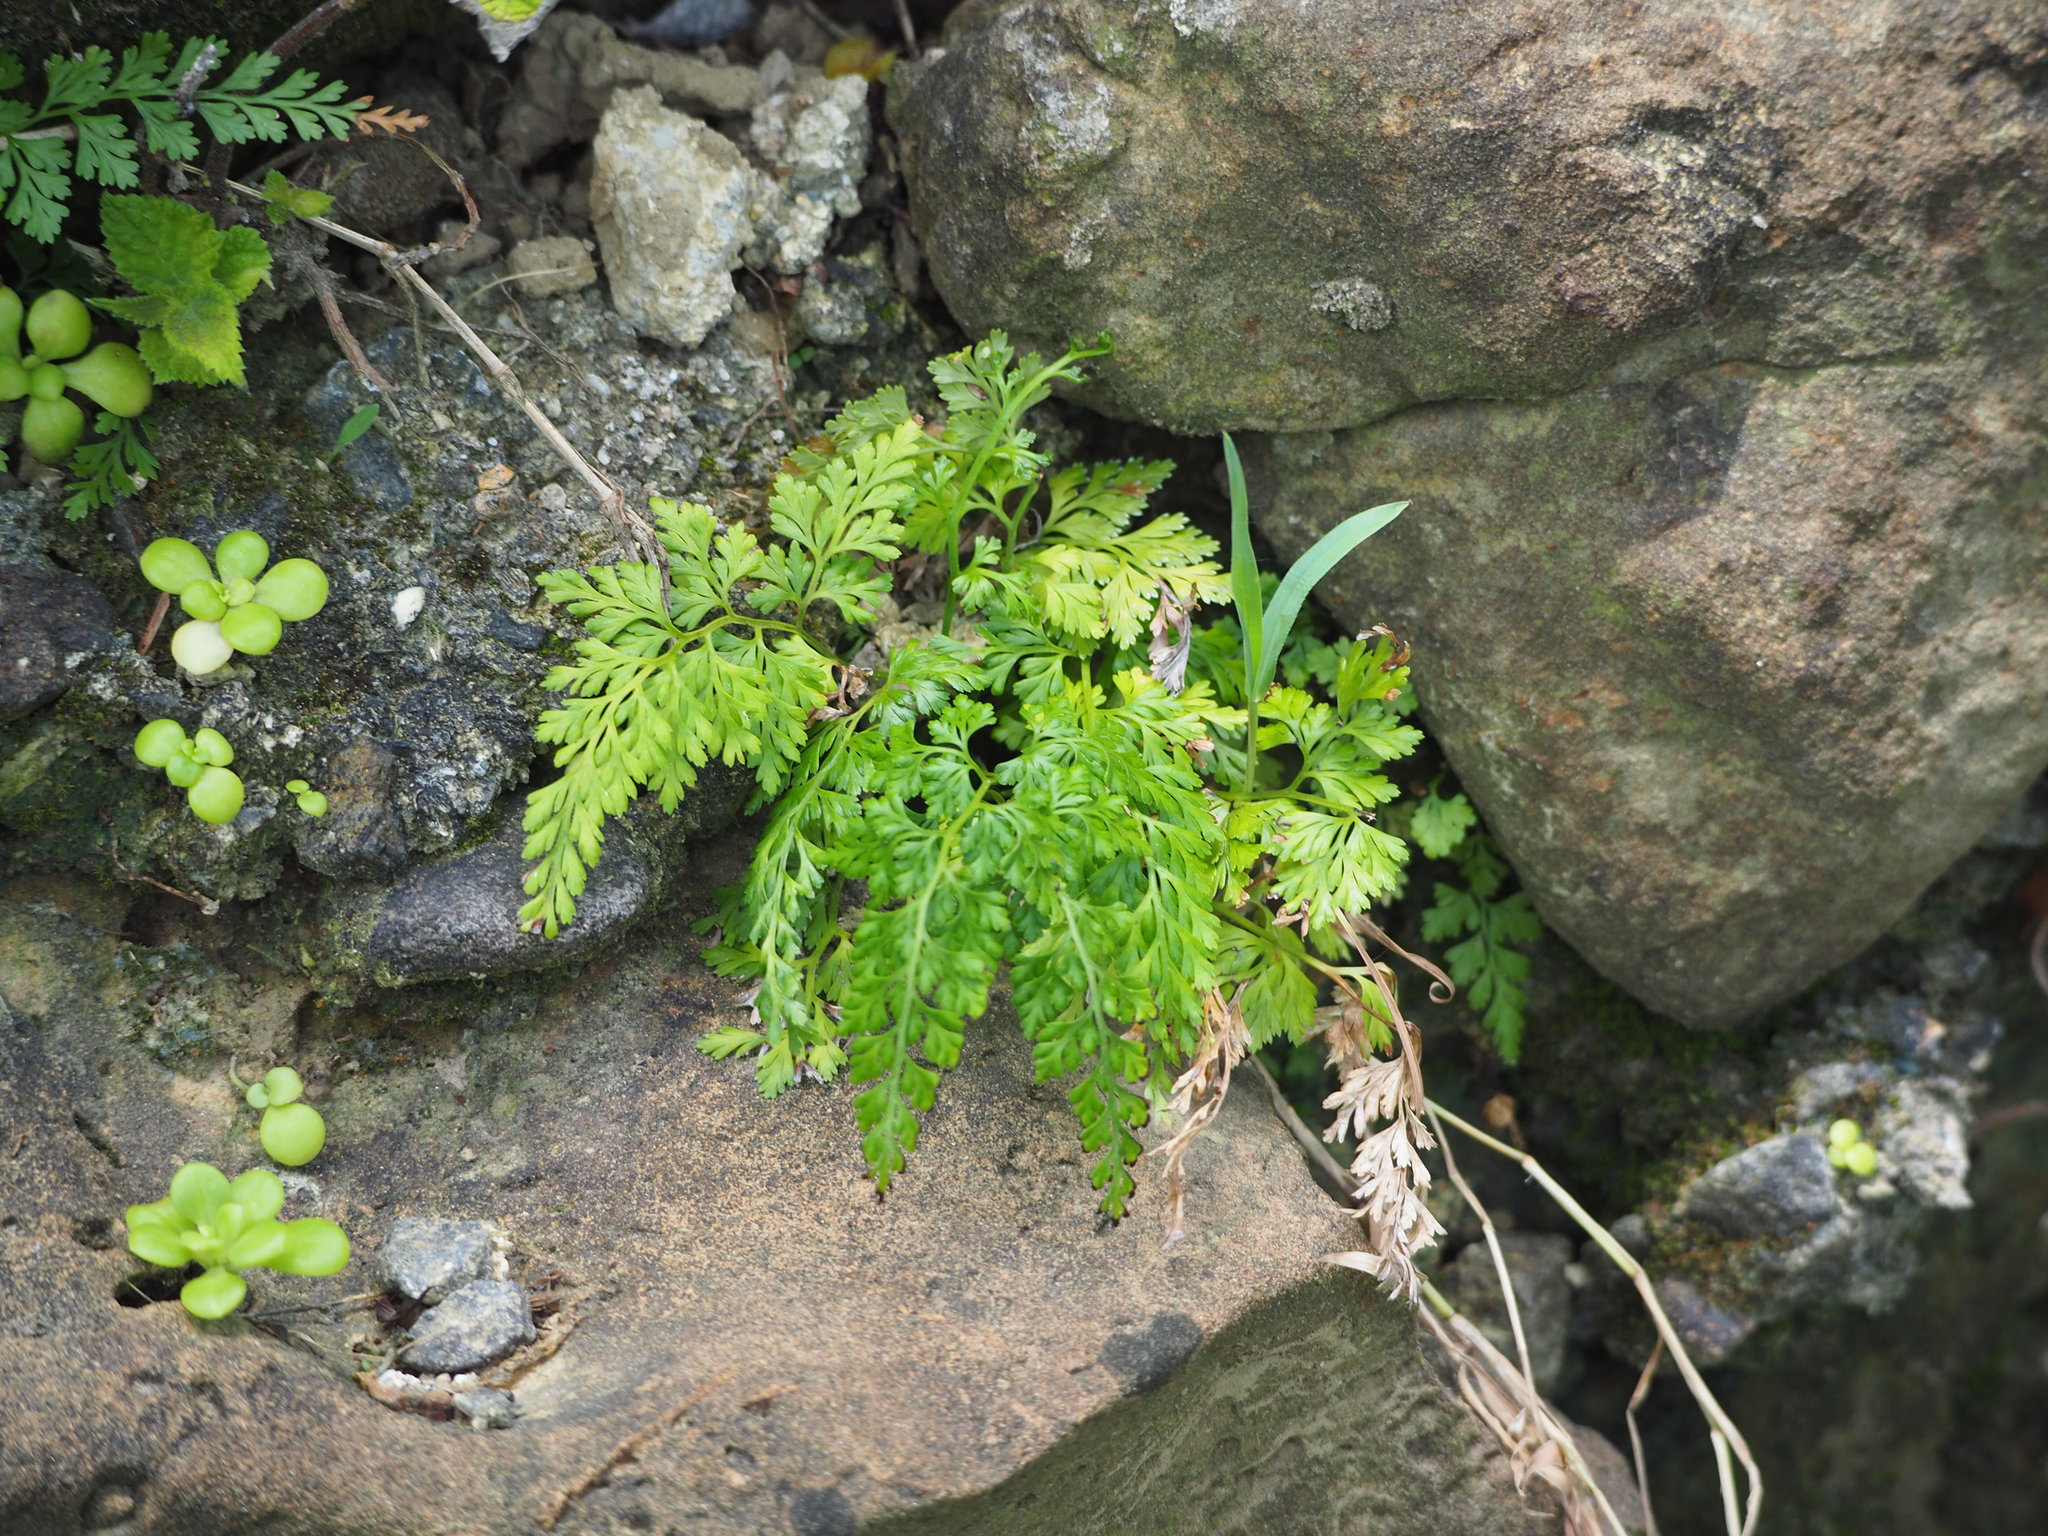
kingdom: Plantae
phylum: Tracheophyta
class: Polypodiopsida
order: Polypodiales
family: Lindsaeaceae
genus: Odontosoria
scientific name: Odontosoria biflora
